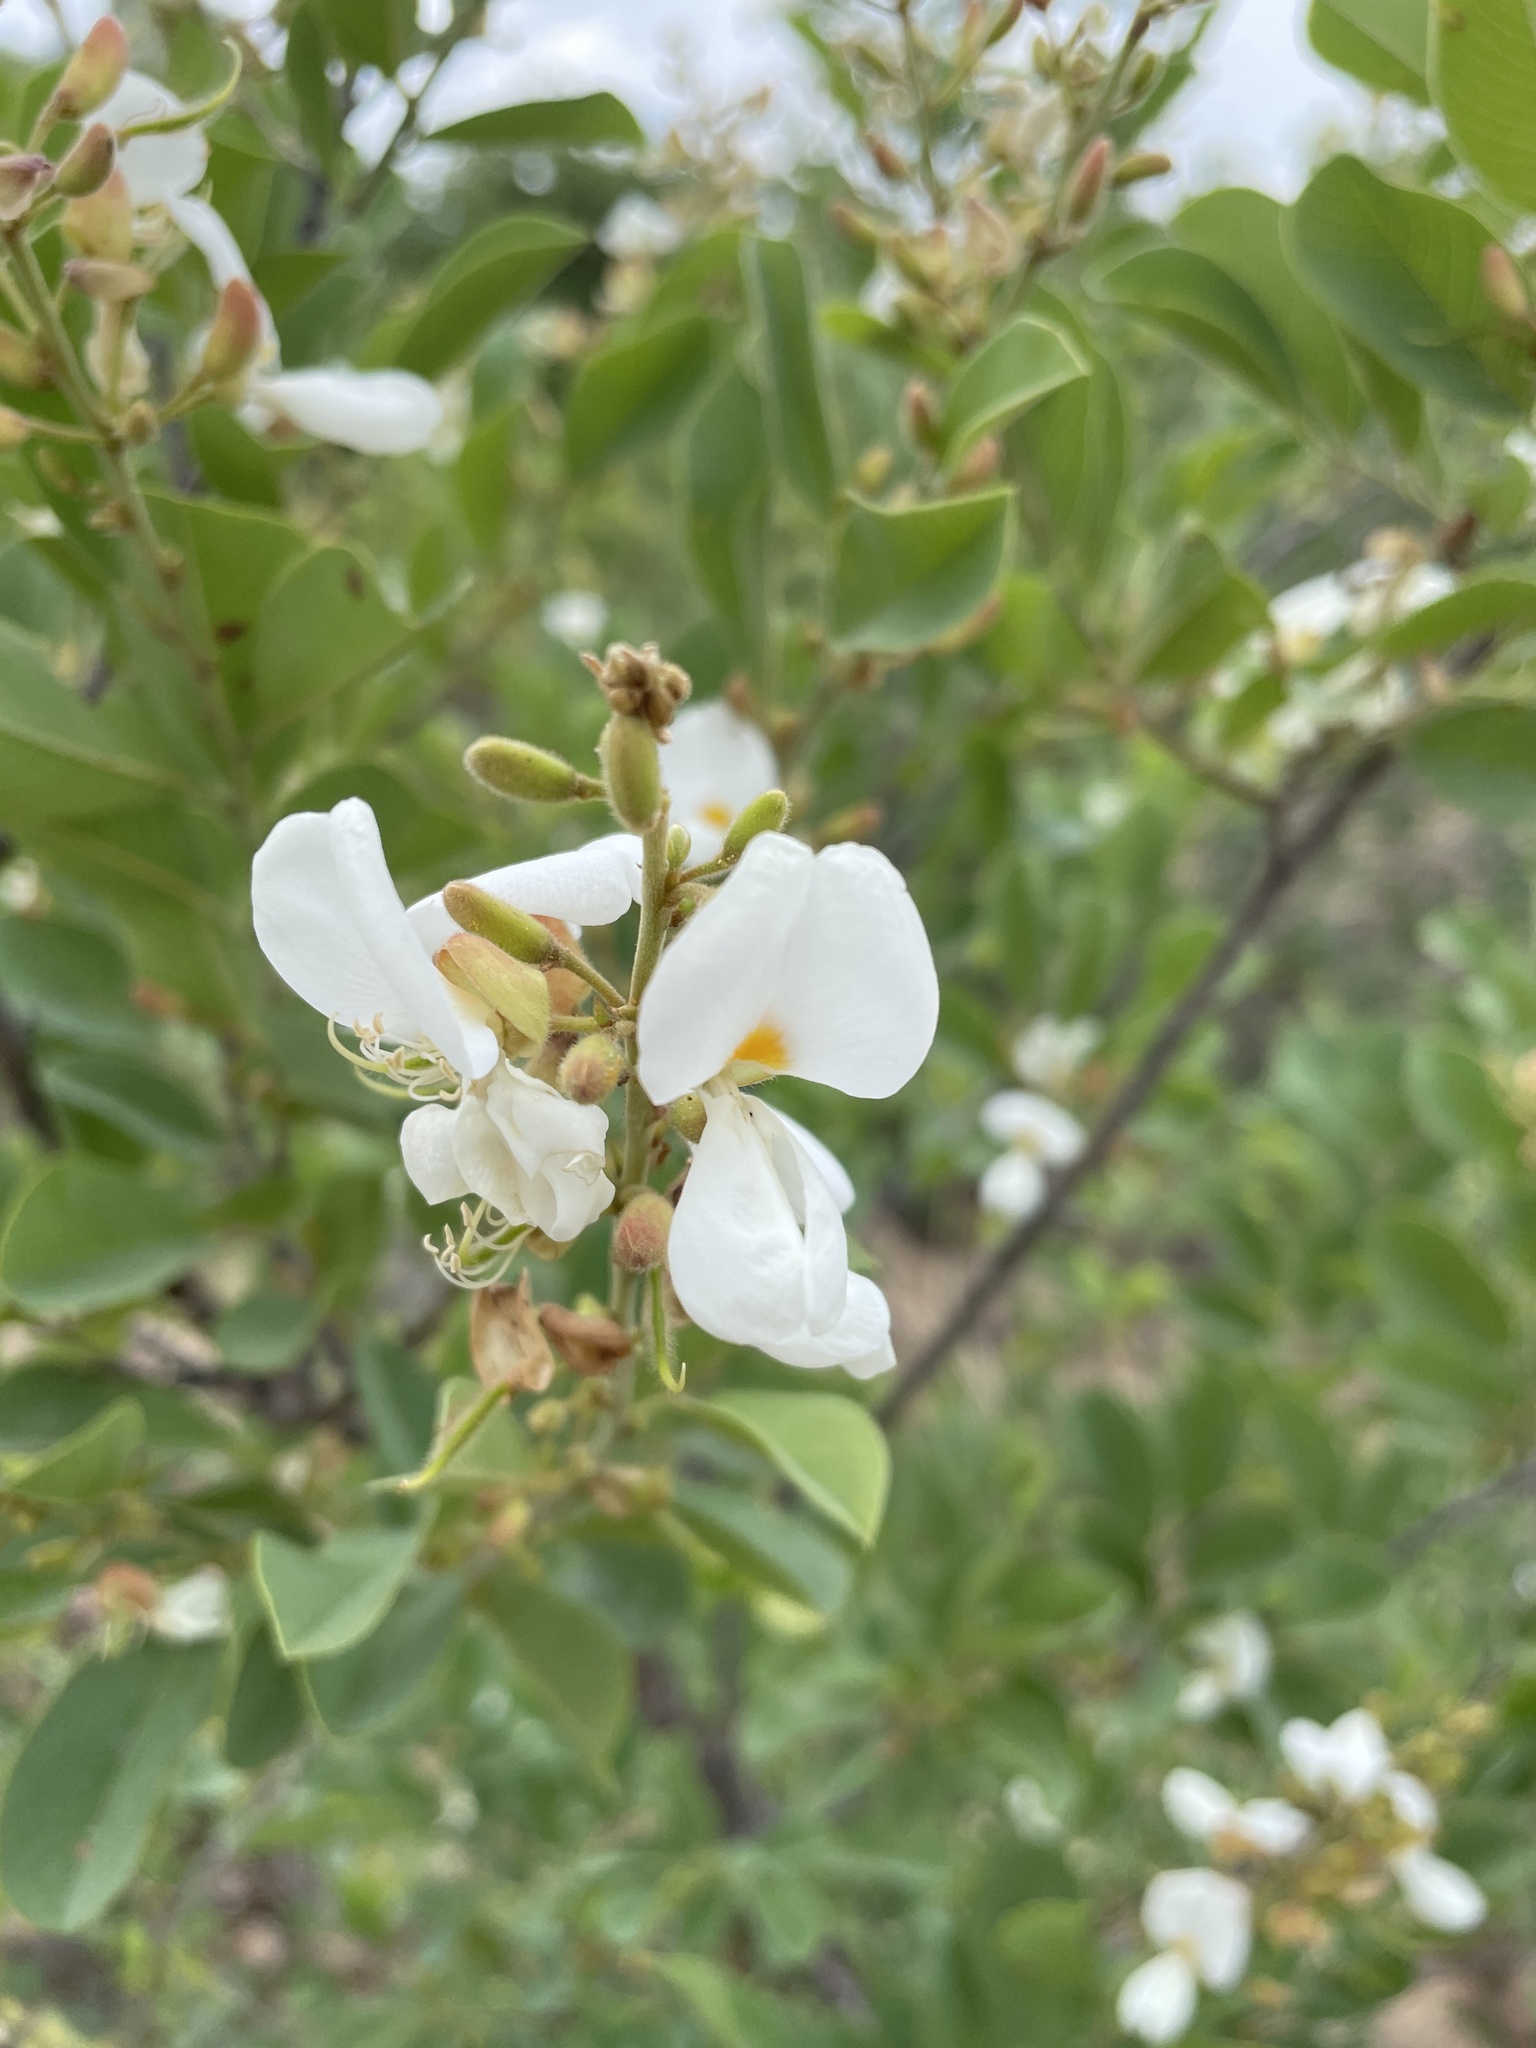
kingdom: Plantae
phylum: Tracheophyta
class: Magnoliopsida
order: Fabales
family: Fabaceae
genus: Baphia
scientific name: Baphia massaiensis
